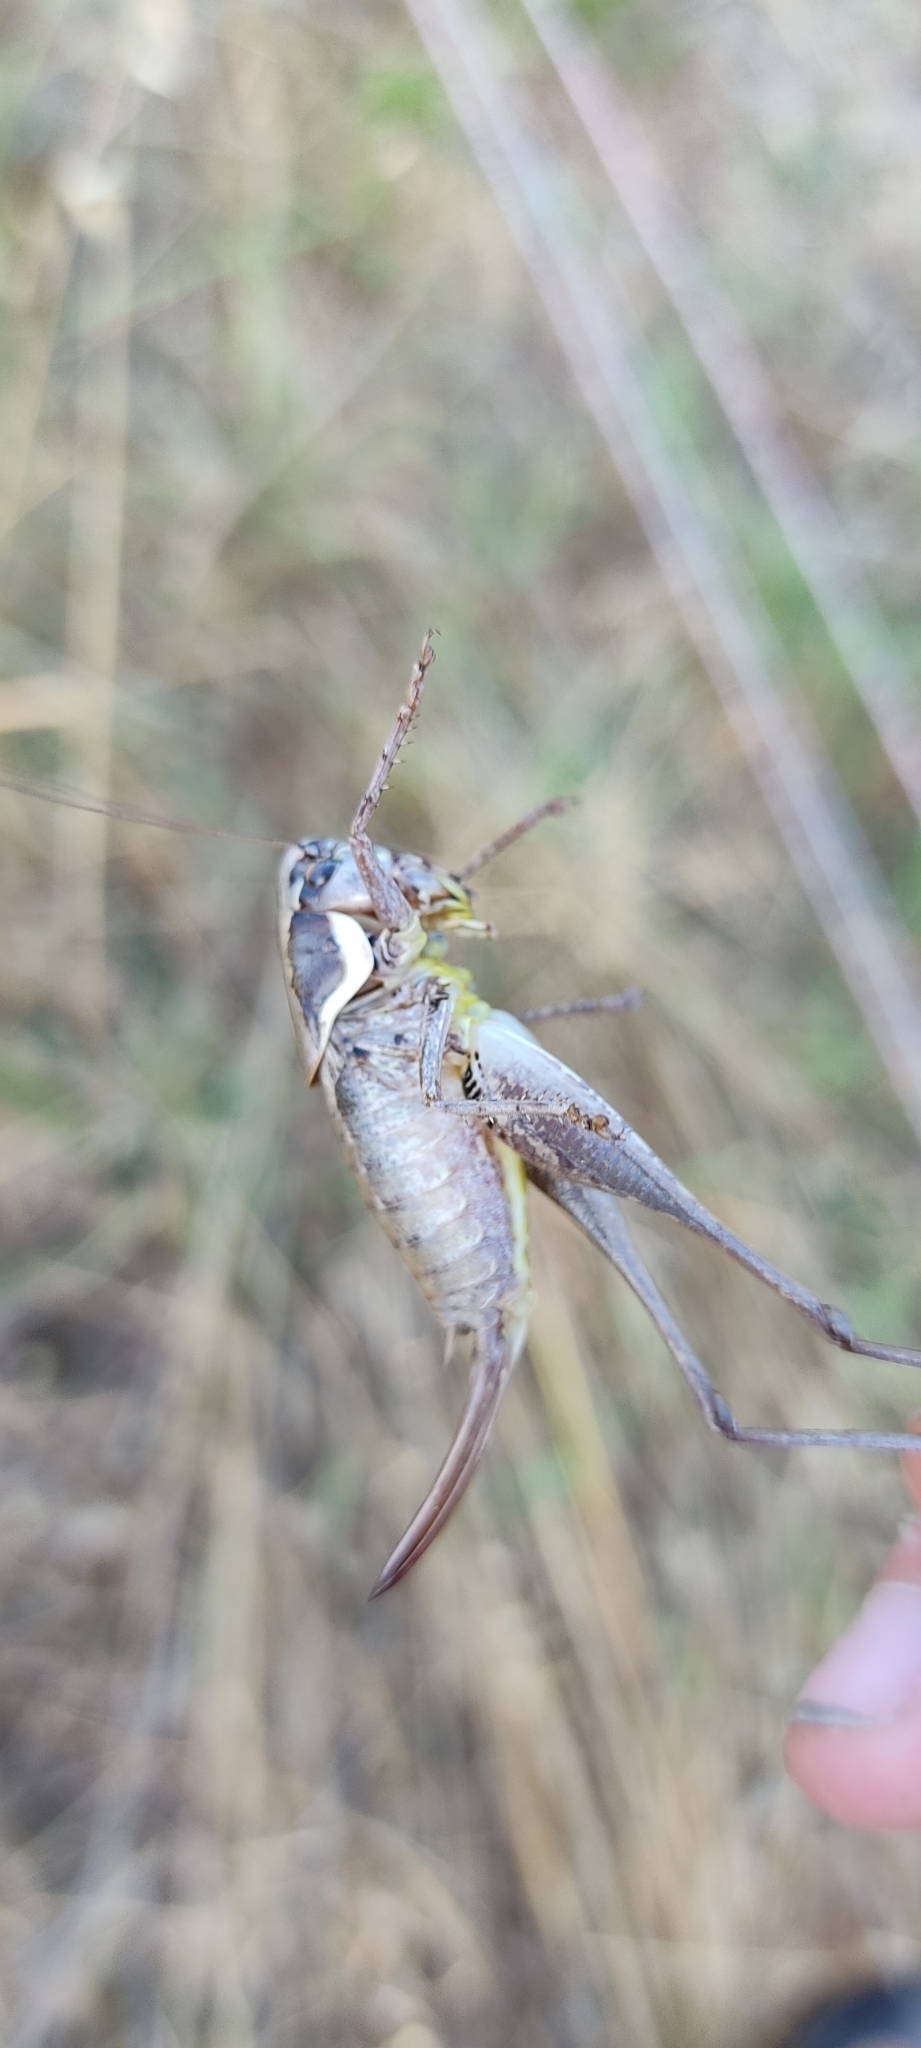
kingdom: Animalia
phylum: Arthropoda
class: Insecta
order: Orthoptera
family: Tettigoniidae
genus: Pholidoptera
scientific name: Pholidoptera femorata
